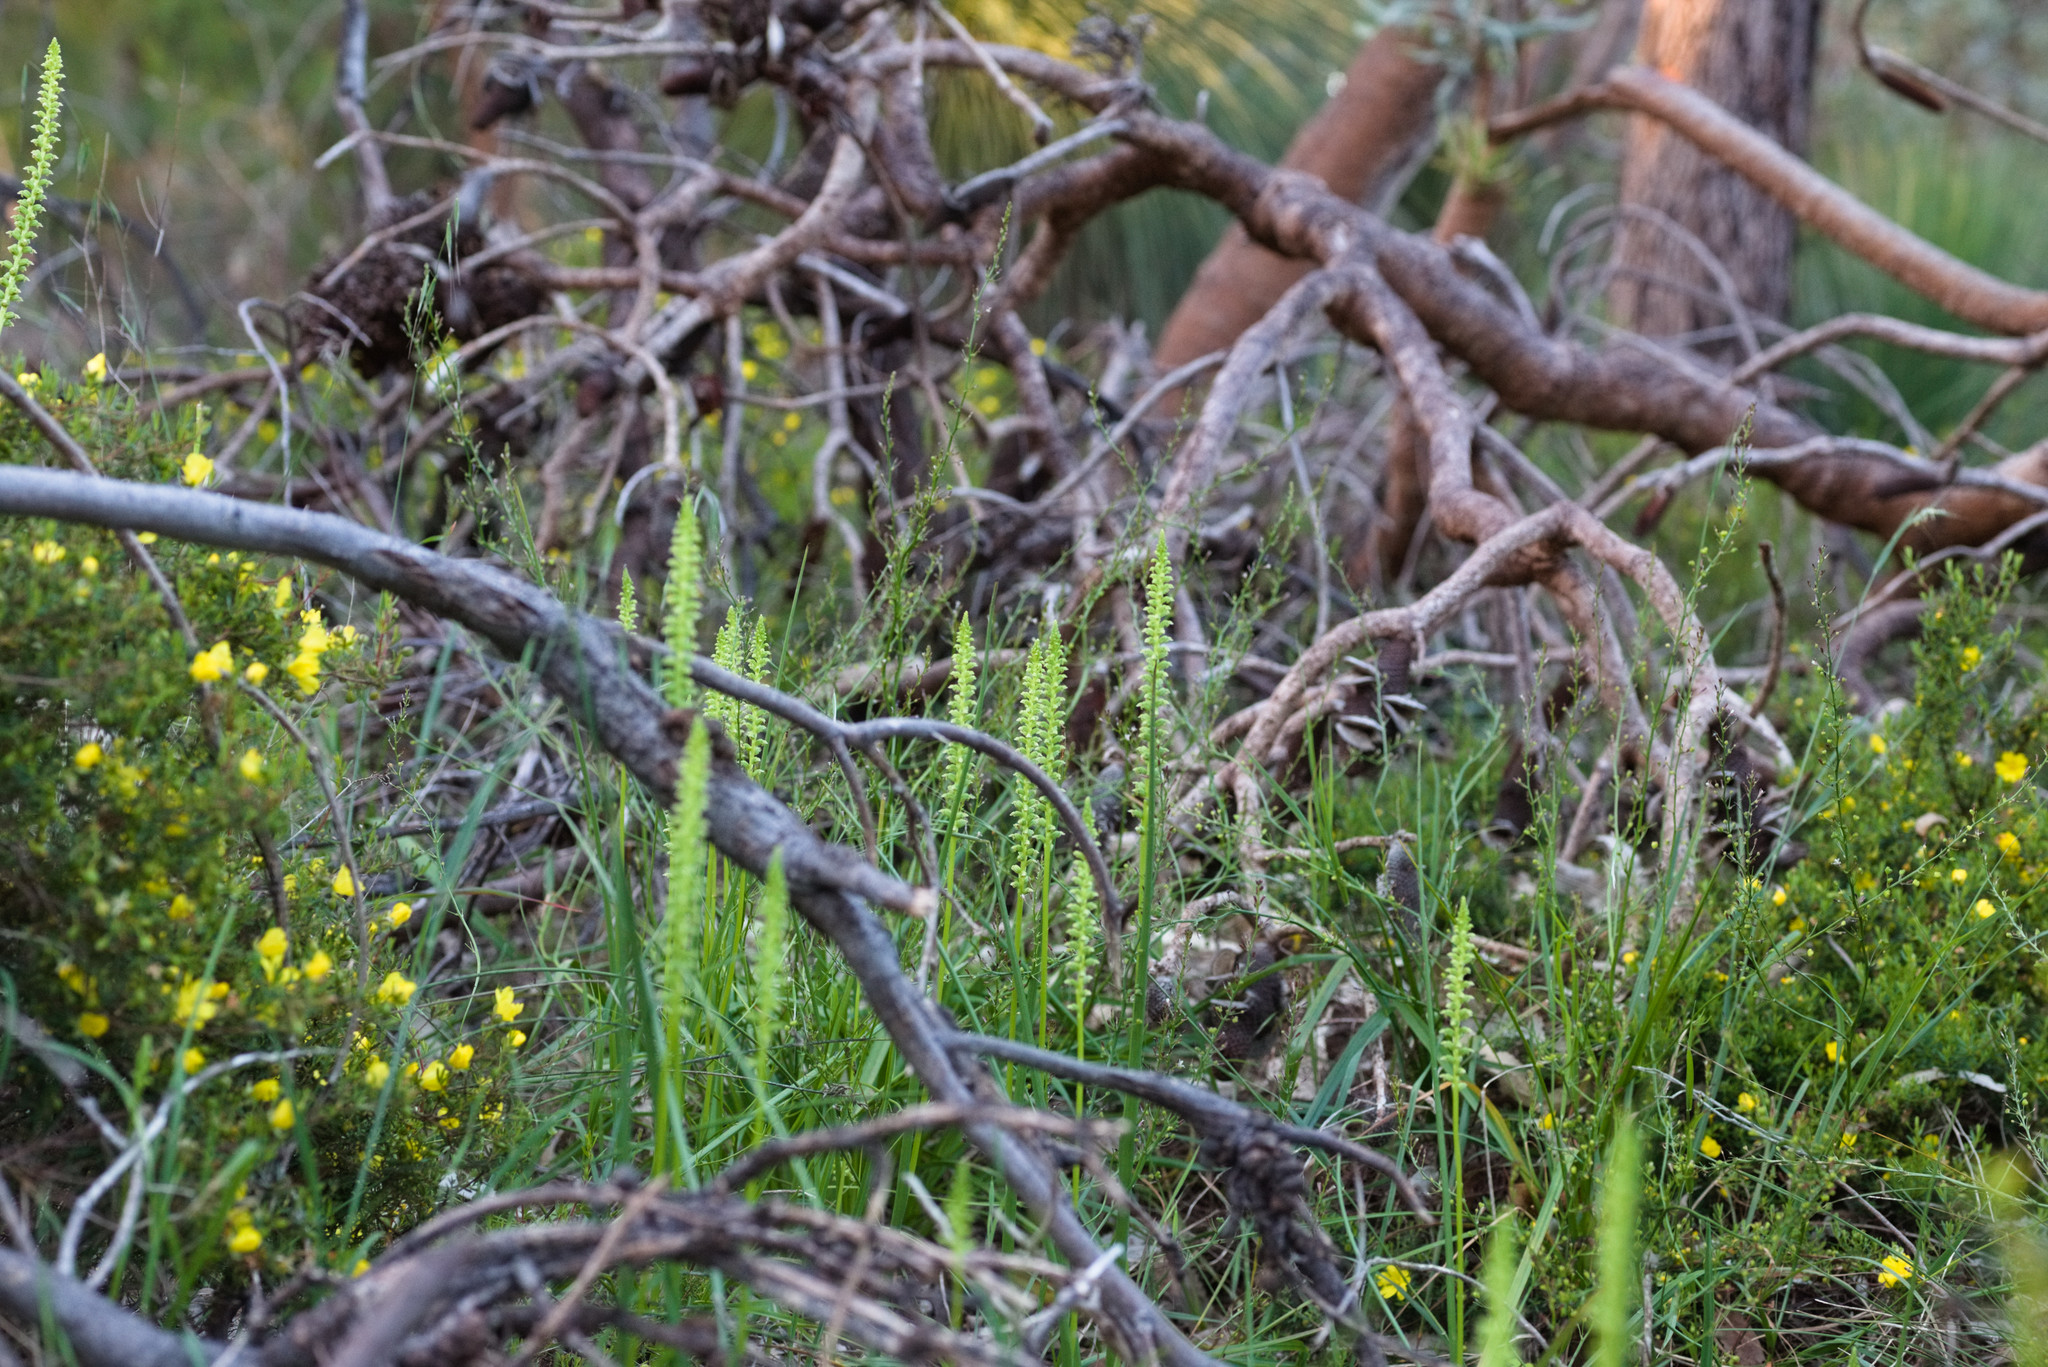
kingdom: Plantae
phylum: Tracheophyta
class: Liliopsida
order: Asparagales
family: Orchidaceae
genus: Microtis
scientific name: Microtis media
